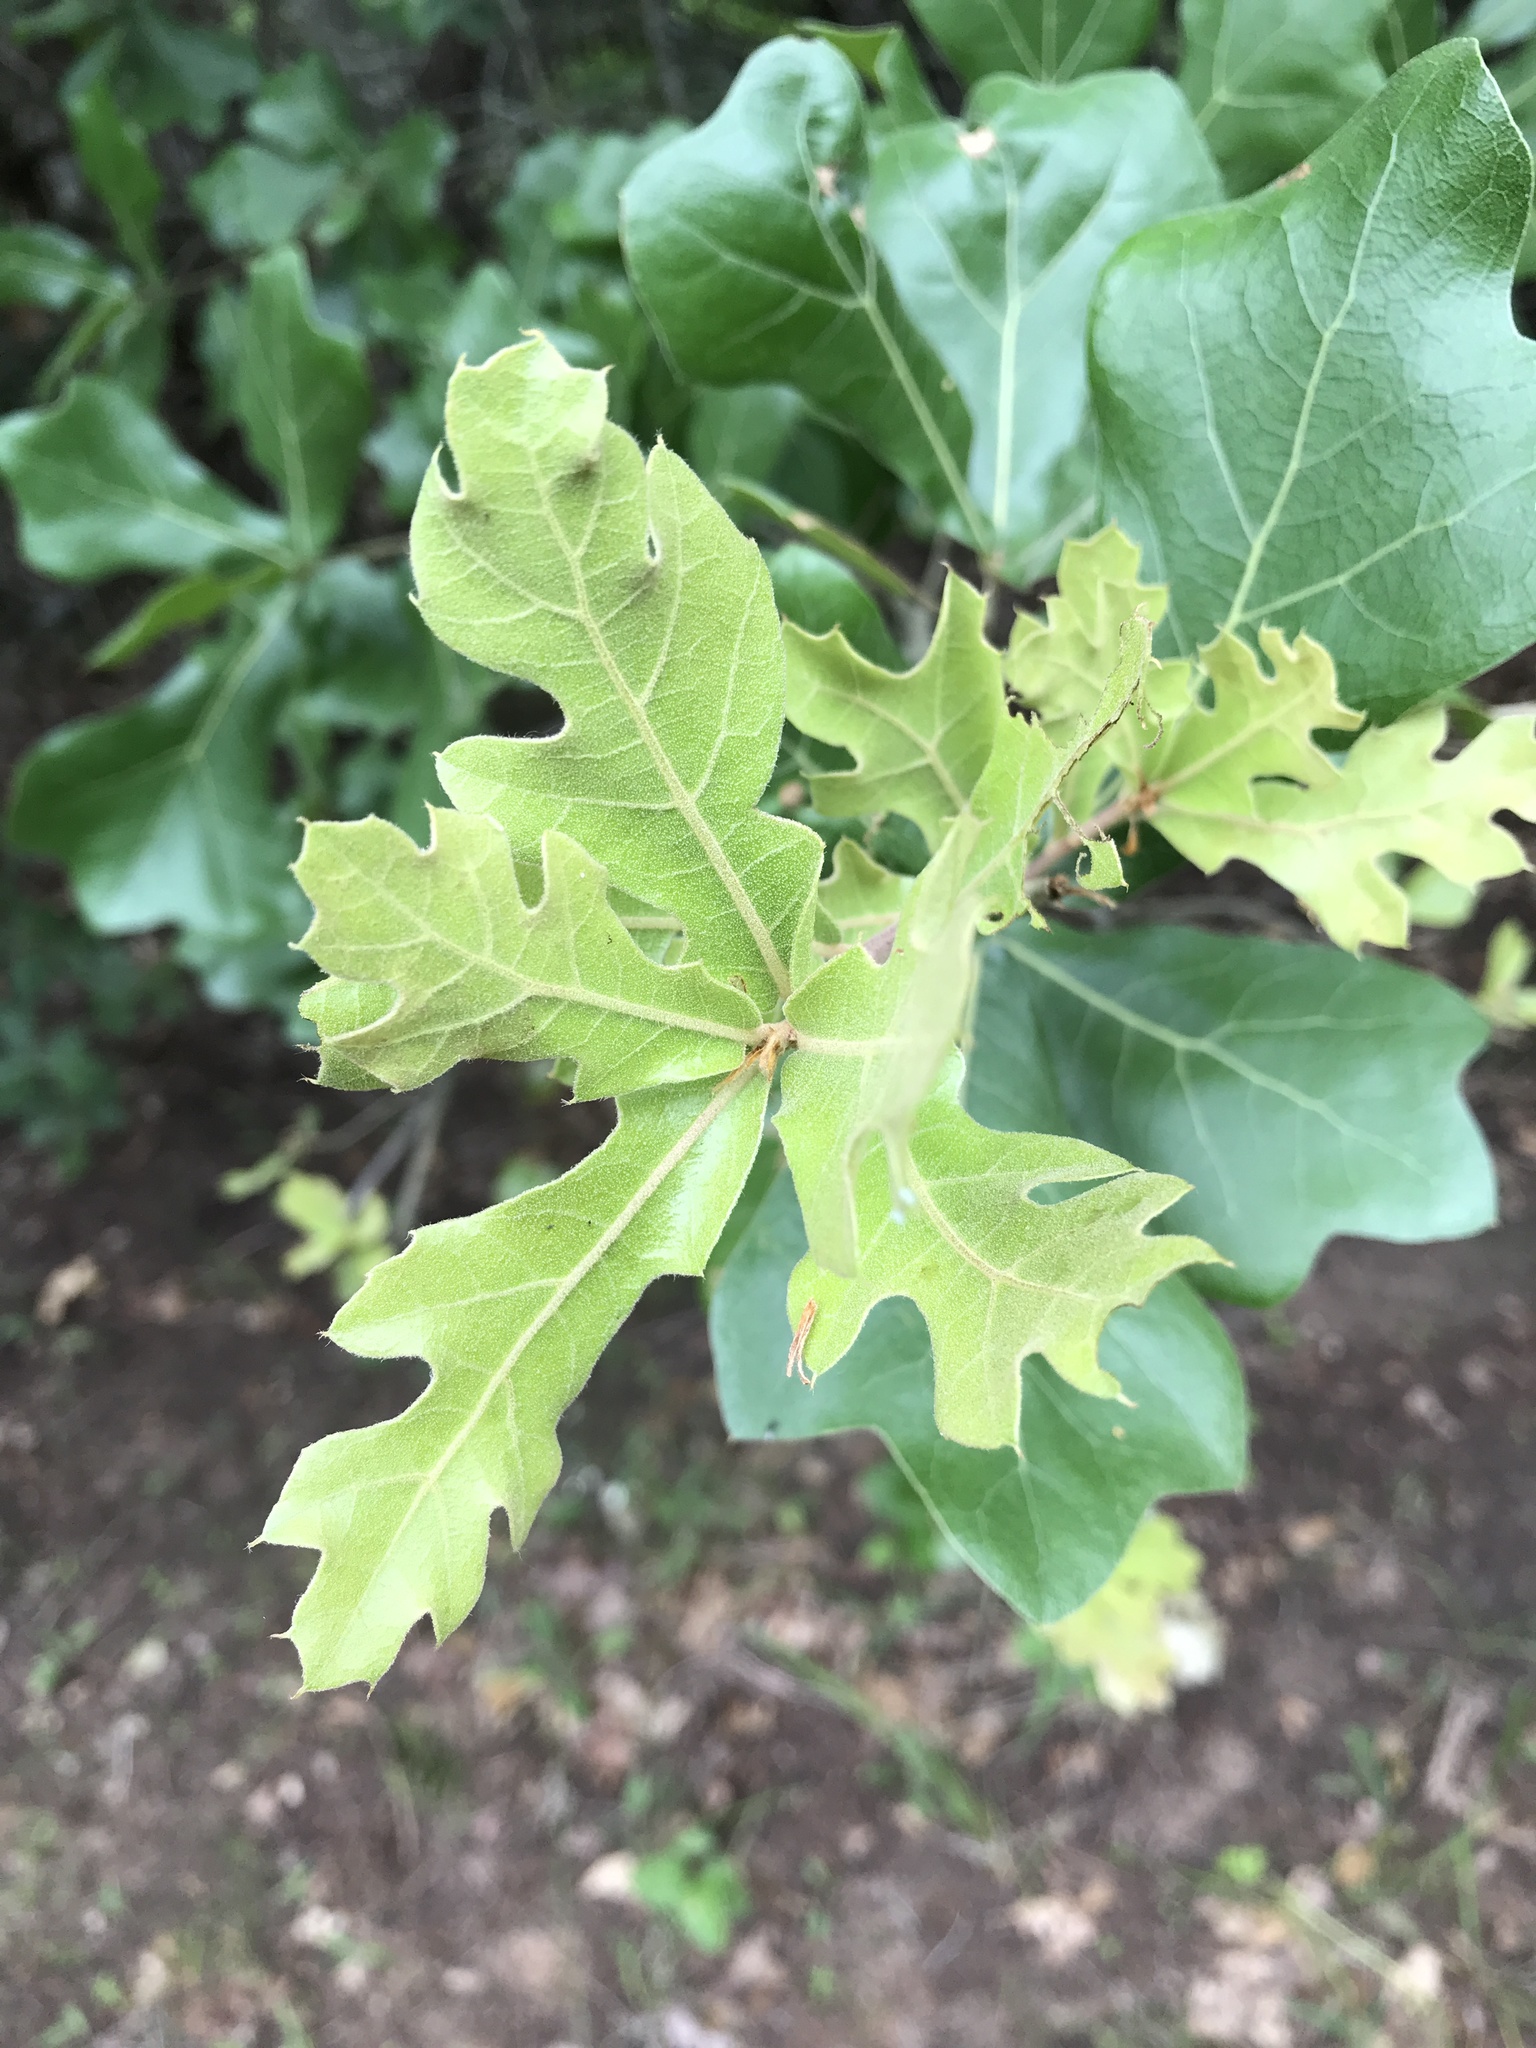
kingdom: Plantae
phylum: Tracheophyta
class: Magnoliopsida
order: Fagales
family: Fagaceae
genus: Quercus
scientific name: Quercus marilandica
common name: Blackjack oak
